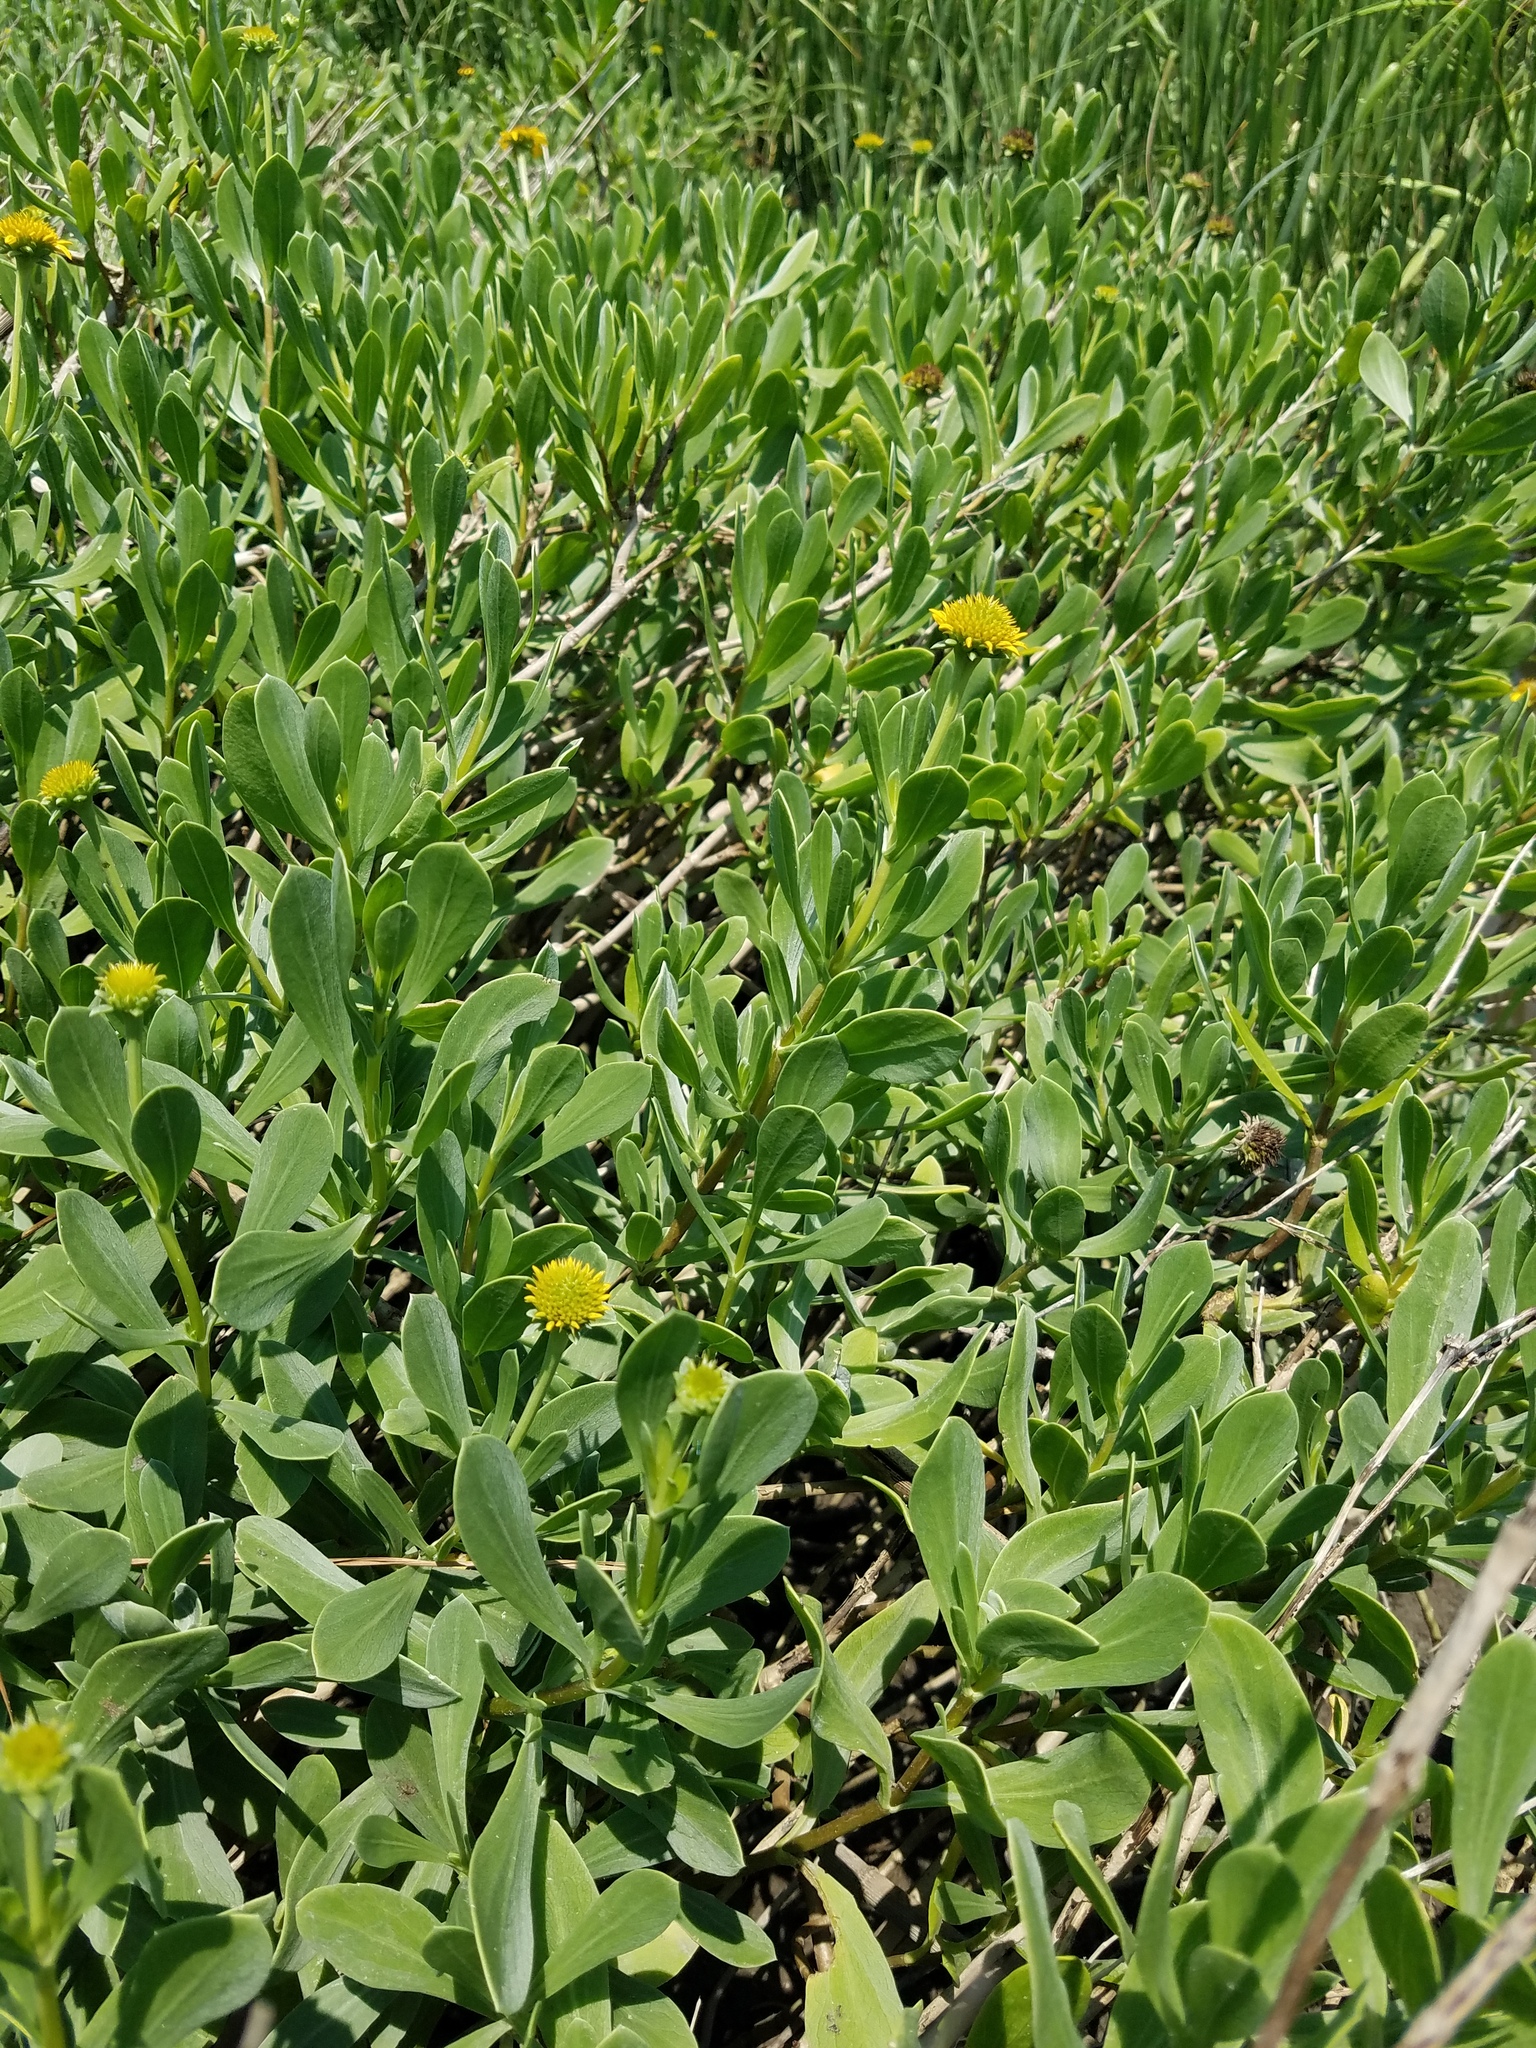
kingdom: Plantae
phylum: Tracheophyta
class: Magnoliopsida
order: Asterales
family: Asteraceae
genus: Borrichia
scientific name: Borrichia frutescens
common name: Sea oxeye
